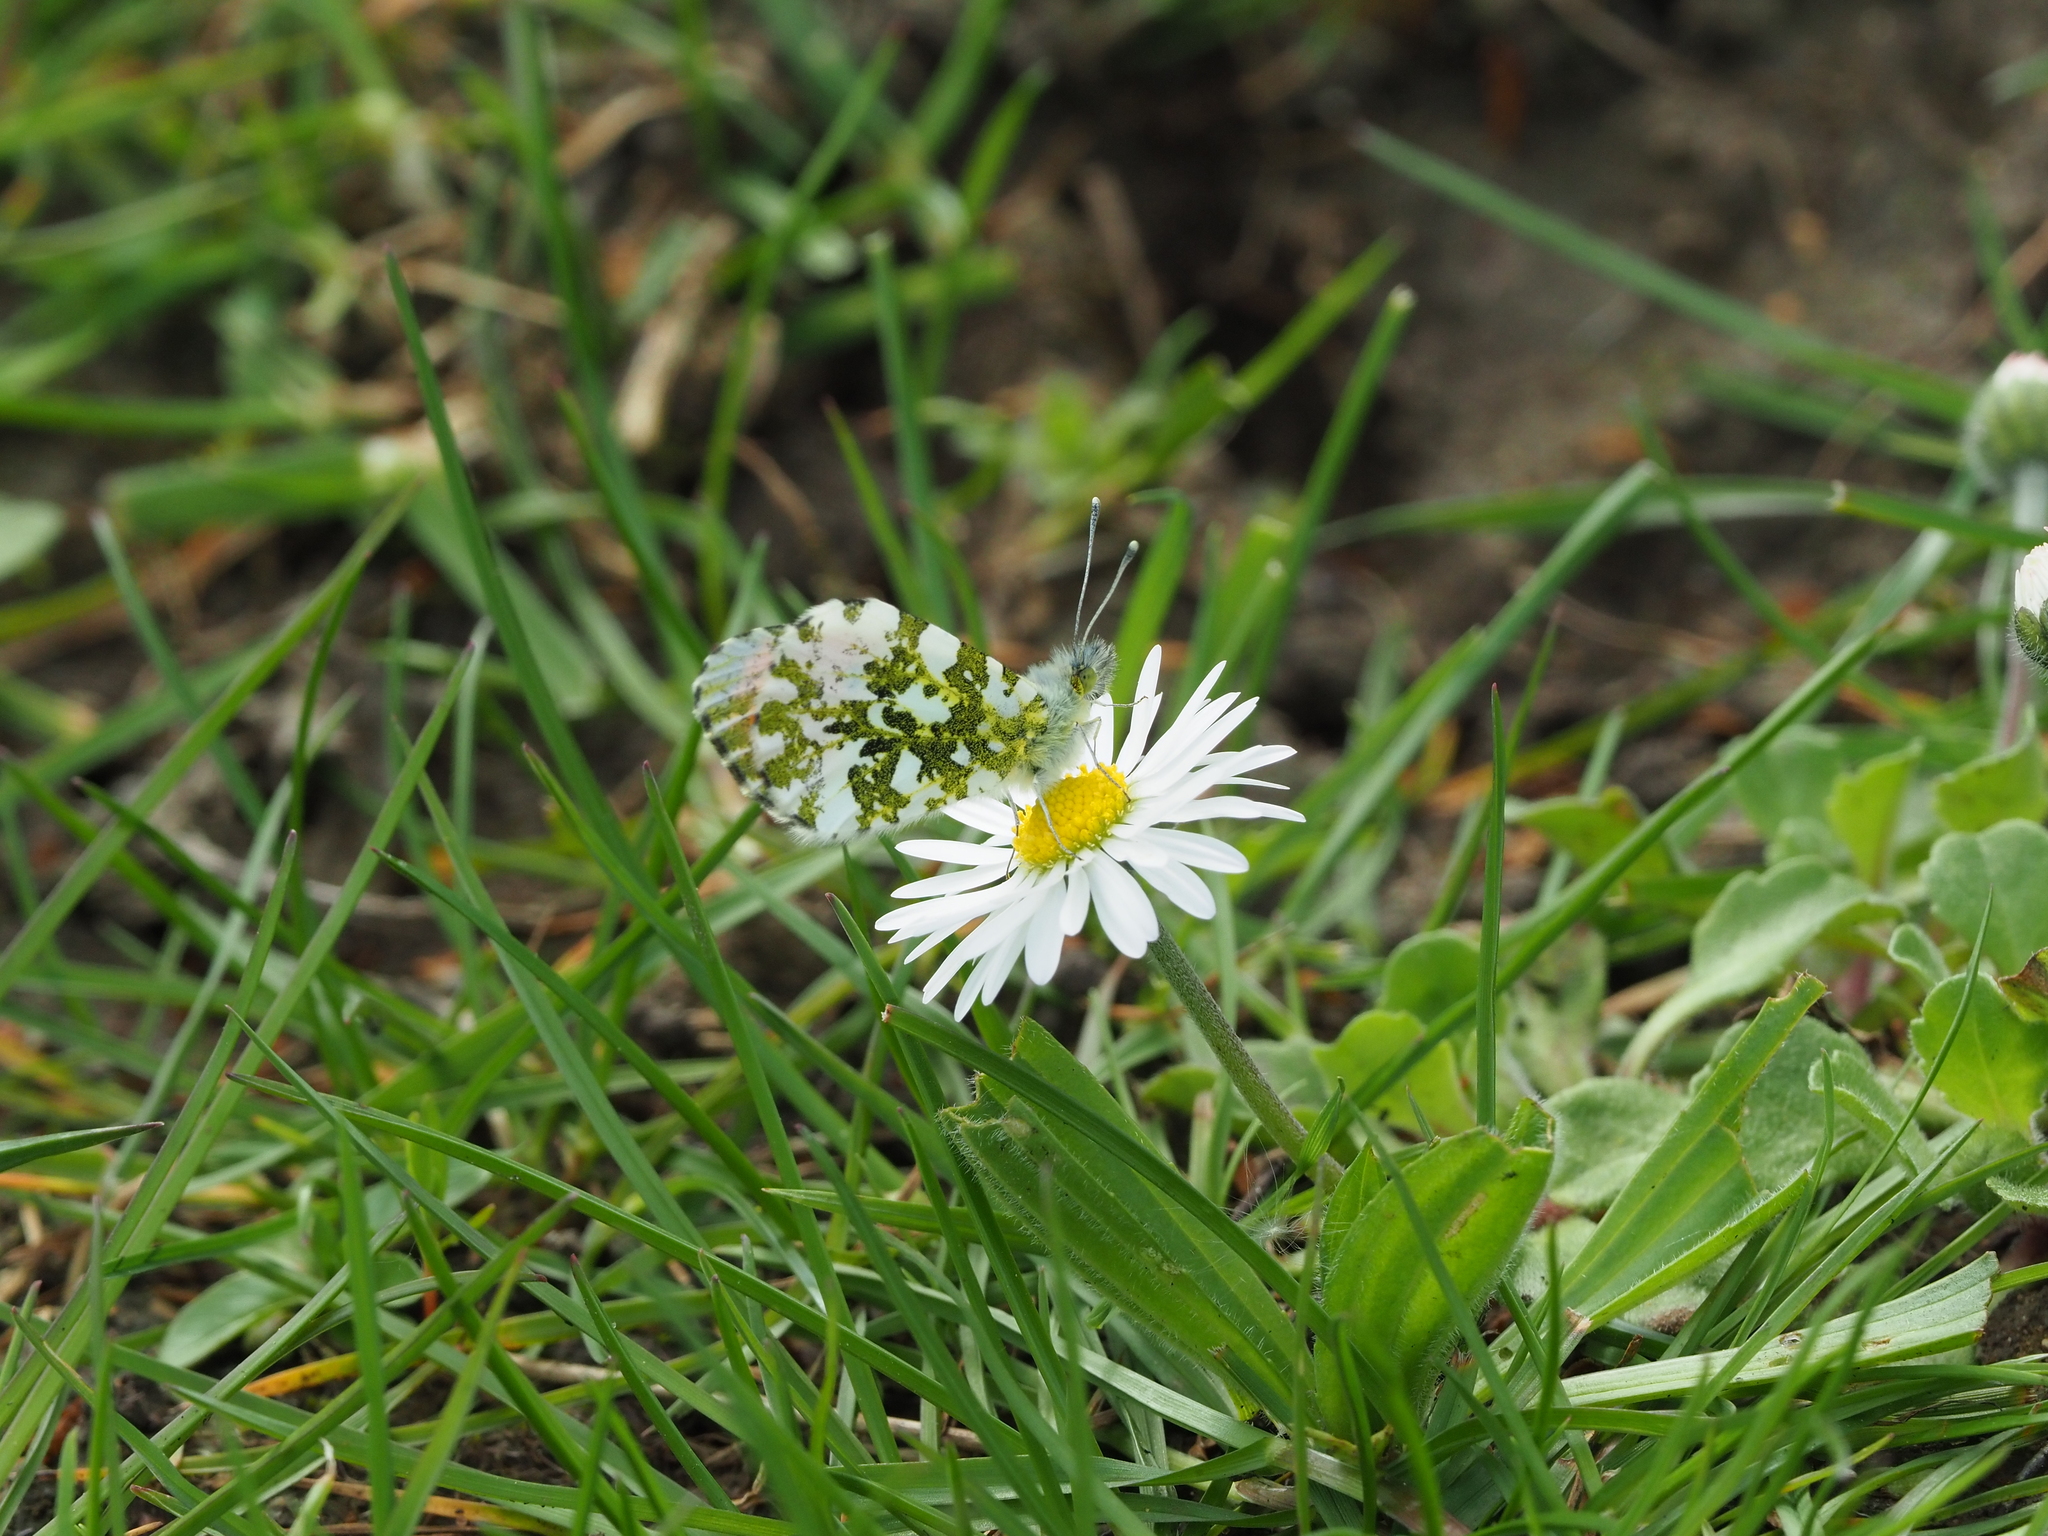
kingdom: Animalia
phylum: Arthropoda
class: Insecta
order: Lepidoptera
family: Pieridae
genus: Anthocharis
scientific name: Anthocharis cardamines
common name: Orange-tip
